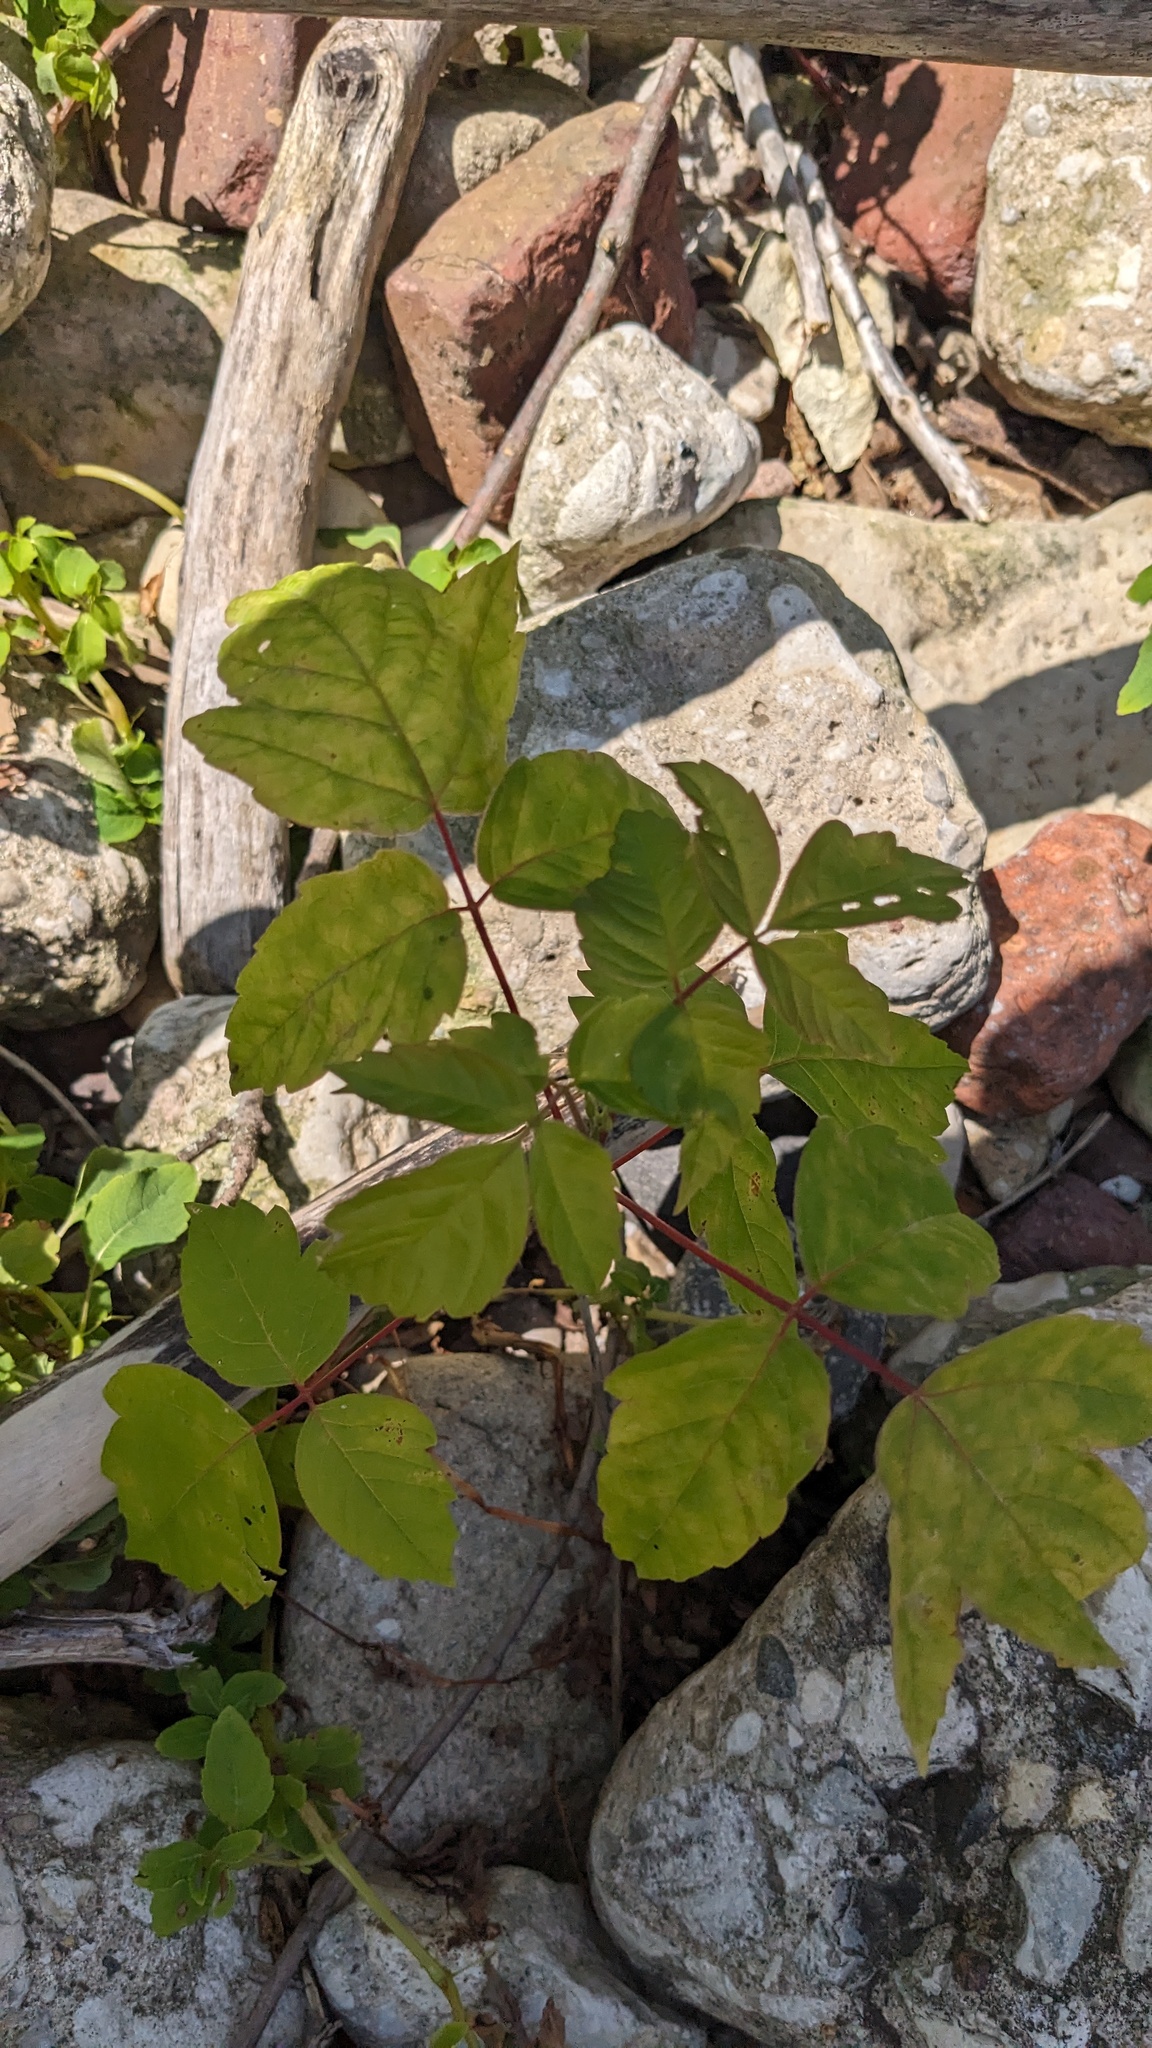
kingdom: Plantae
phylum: Tracheophyta
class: Magnoliopsida
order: Sapindales
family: Sapindaceae
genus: Acer
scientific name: Acer negundo
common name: Ashleaf maple
